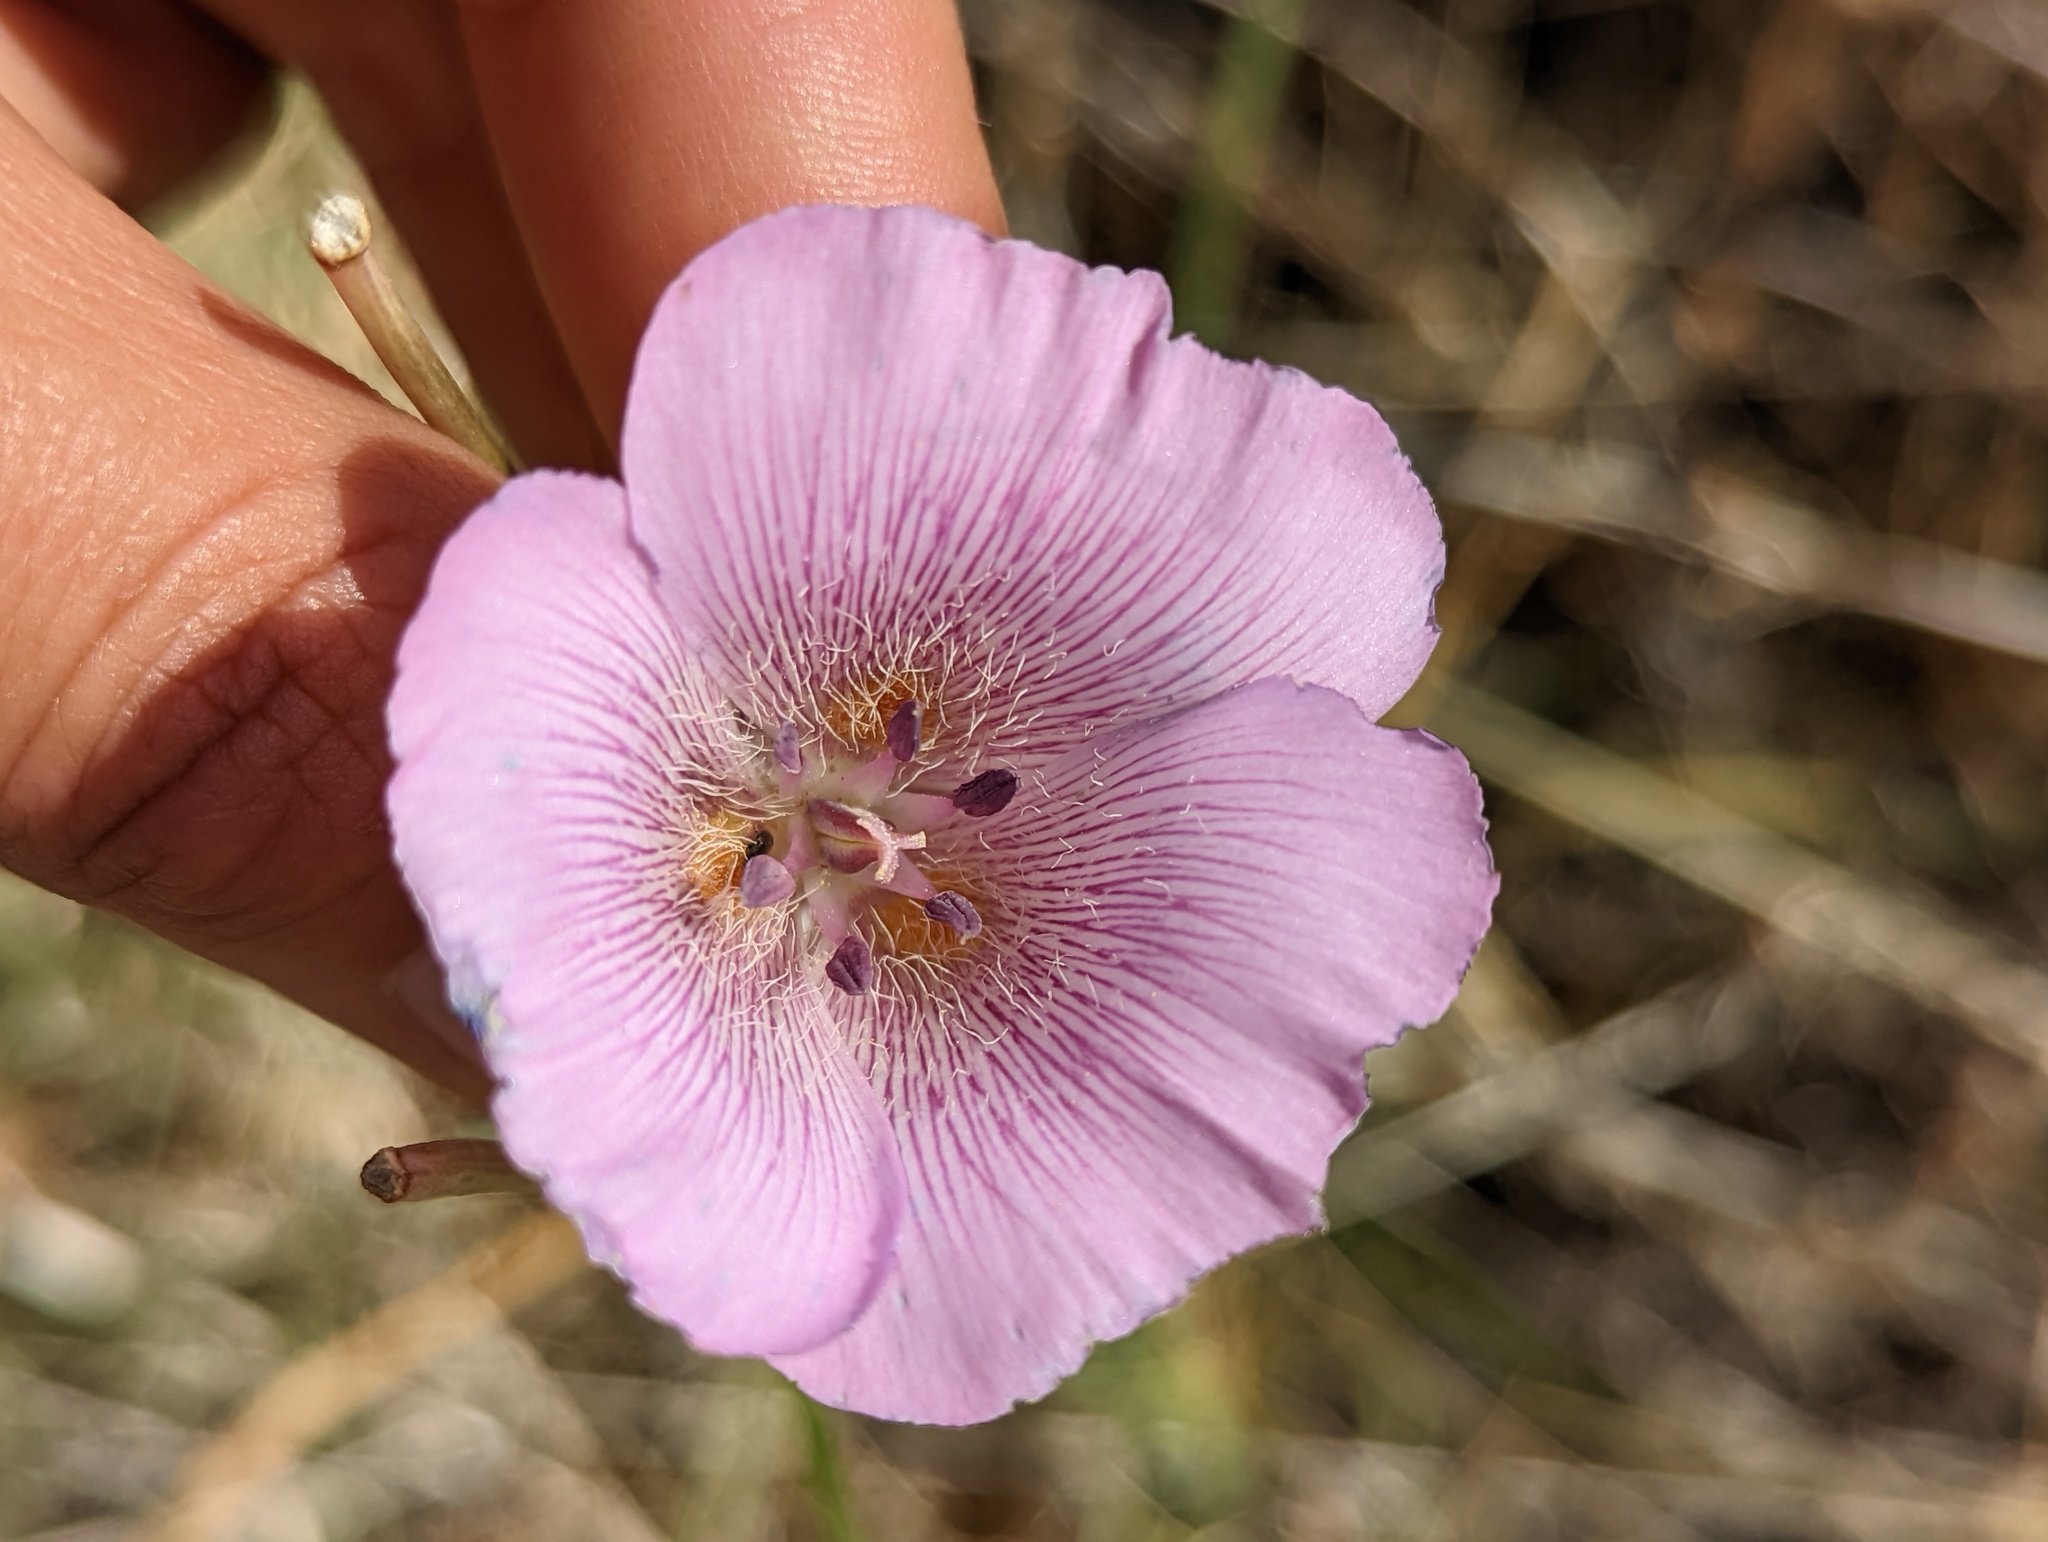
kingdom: Plantae
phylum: Tracheophyta
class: Liliopsida
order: Liliales
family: Liliaceae
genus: Calochortus
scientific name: Calochortus striatus
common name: Alkali mariposa-lily
